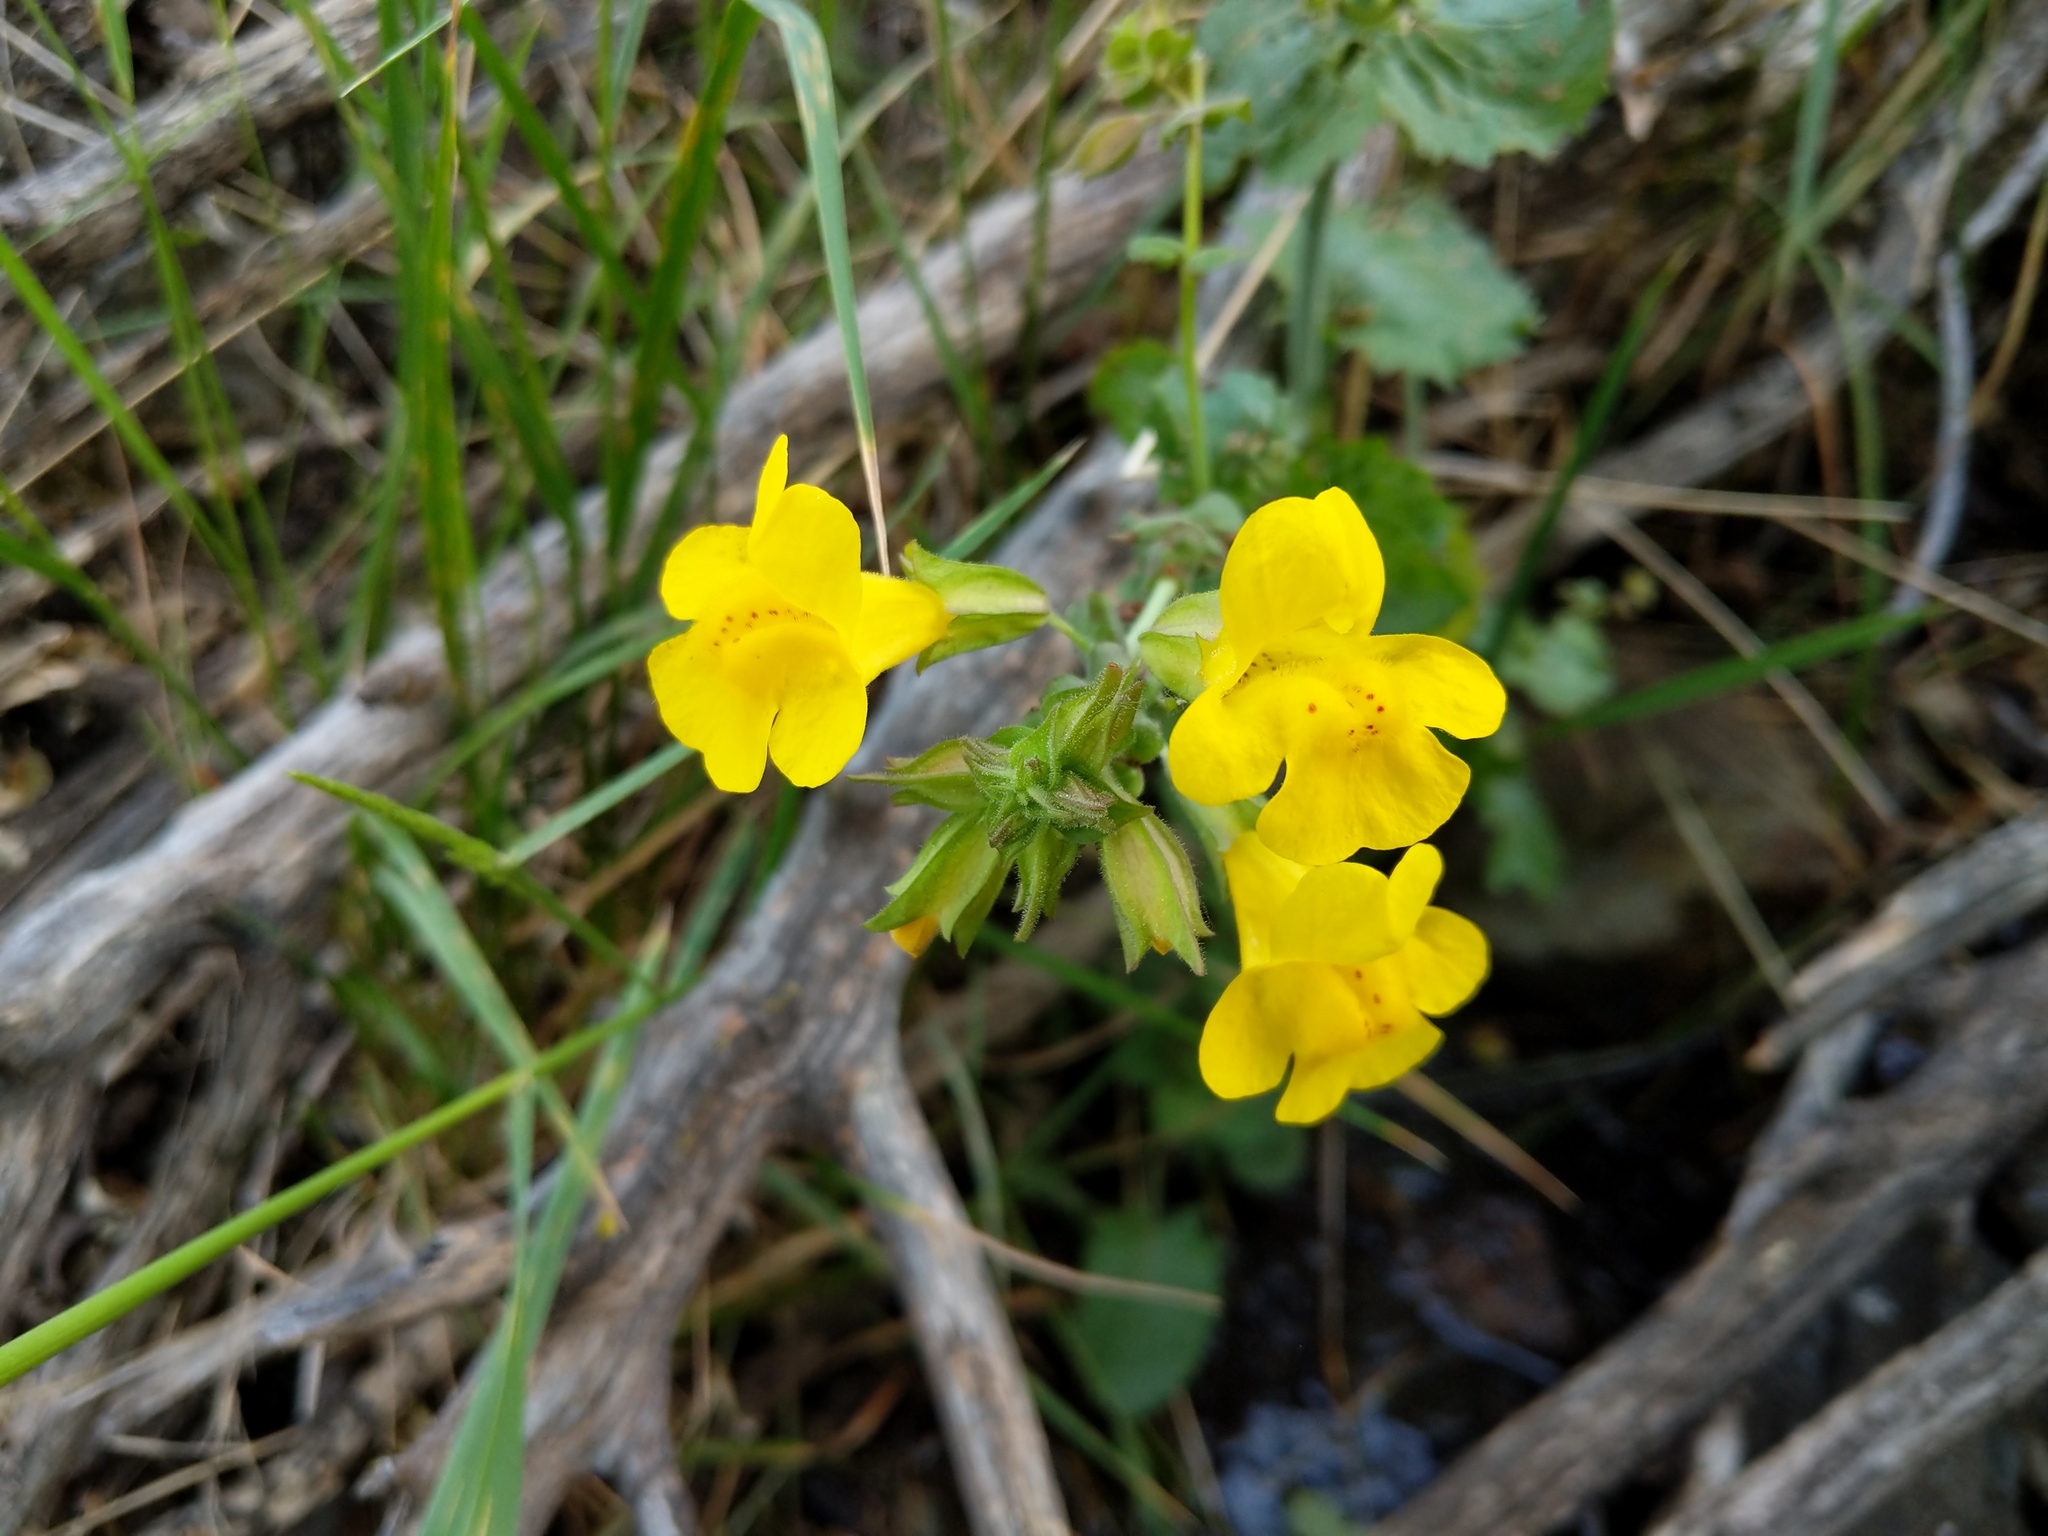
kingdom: Plantae
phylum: Tracheophyta
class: Magnoliopsida
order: Lamiales
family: Phrymaceae
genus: Erythranthe
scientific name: Erythranthe guttata
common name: Monkeyflower
